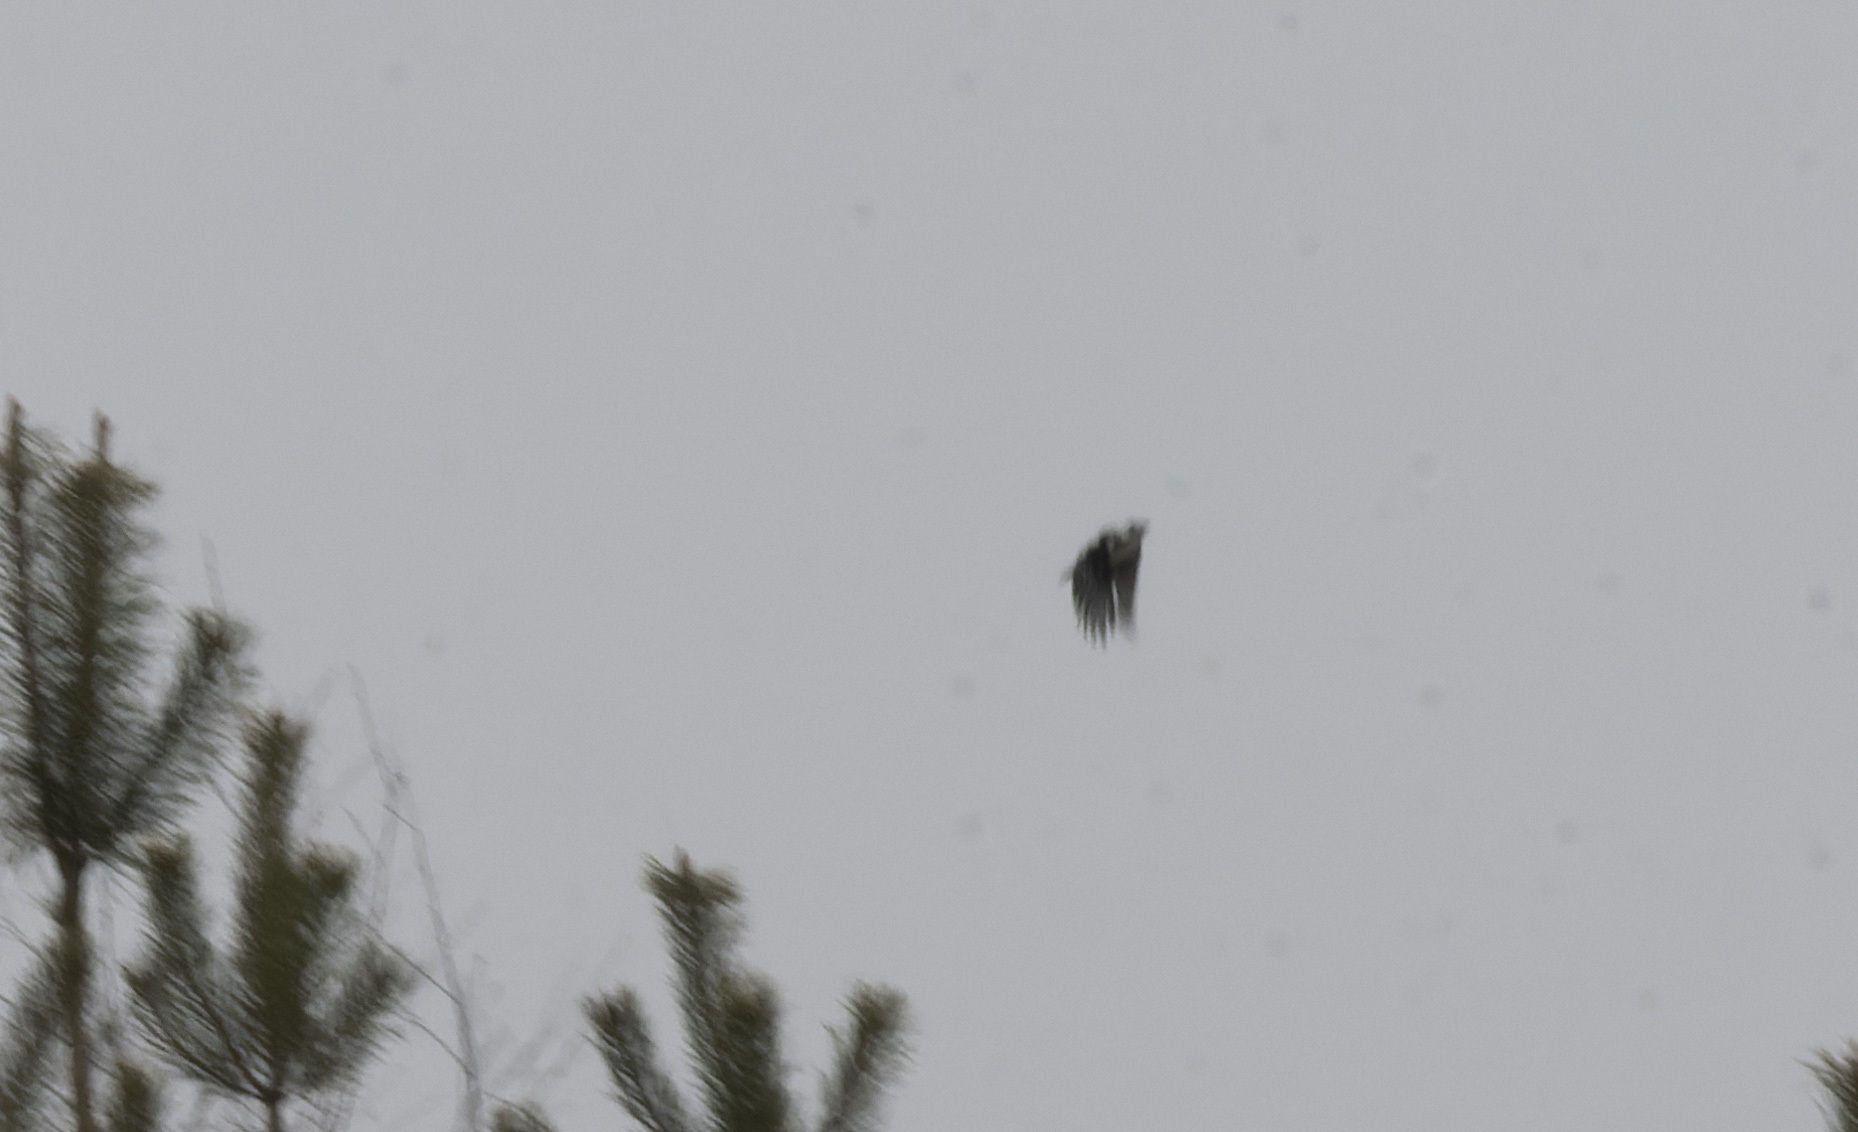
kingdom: Animalia
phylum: Chordata
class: Aves
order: Piciformes
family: Picidae
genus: Dendrocopos
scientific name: Dendrocopos major
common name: Great spotted woodpecker
